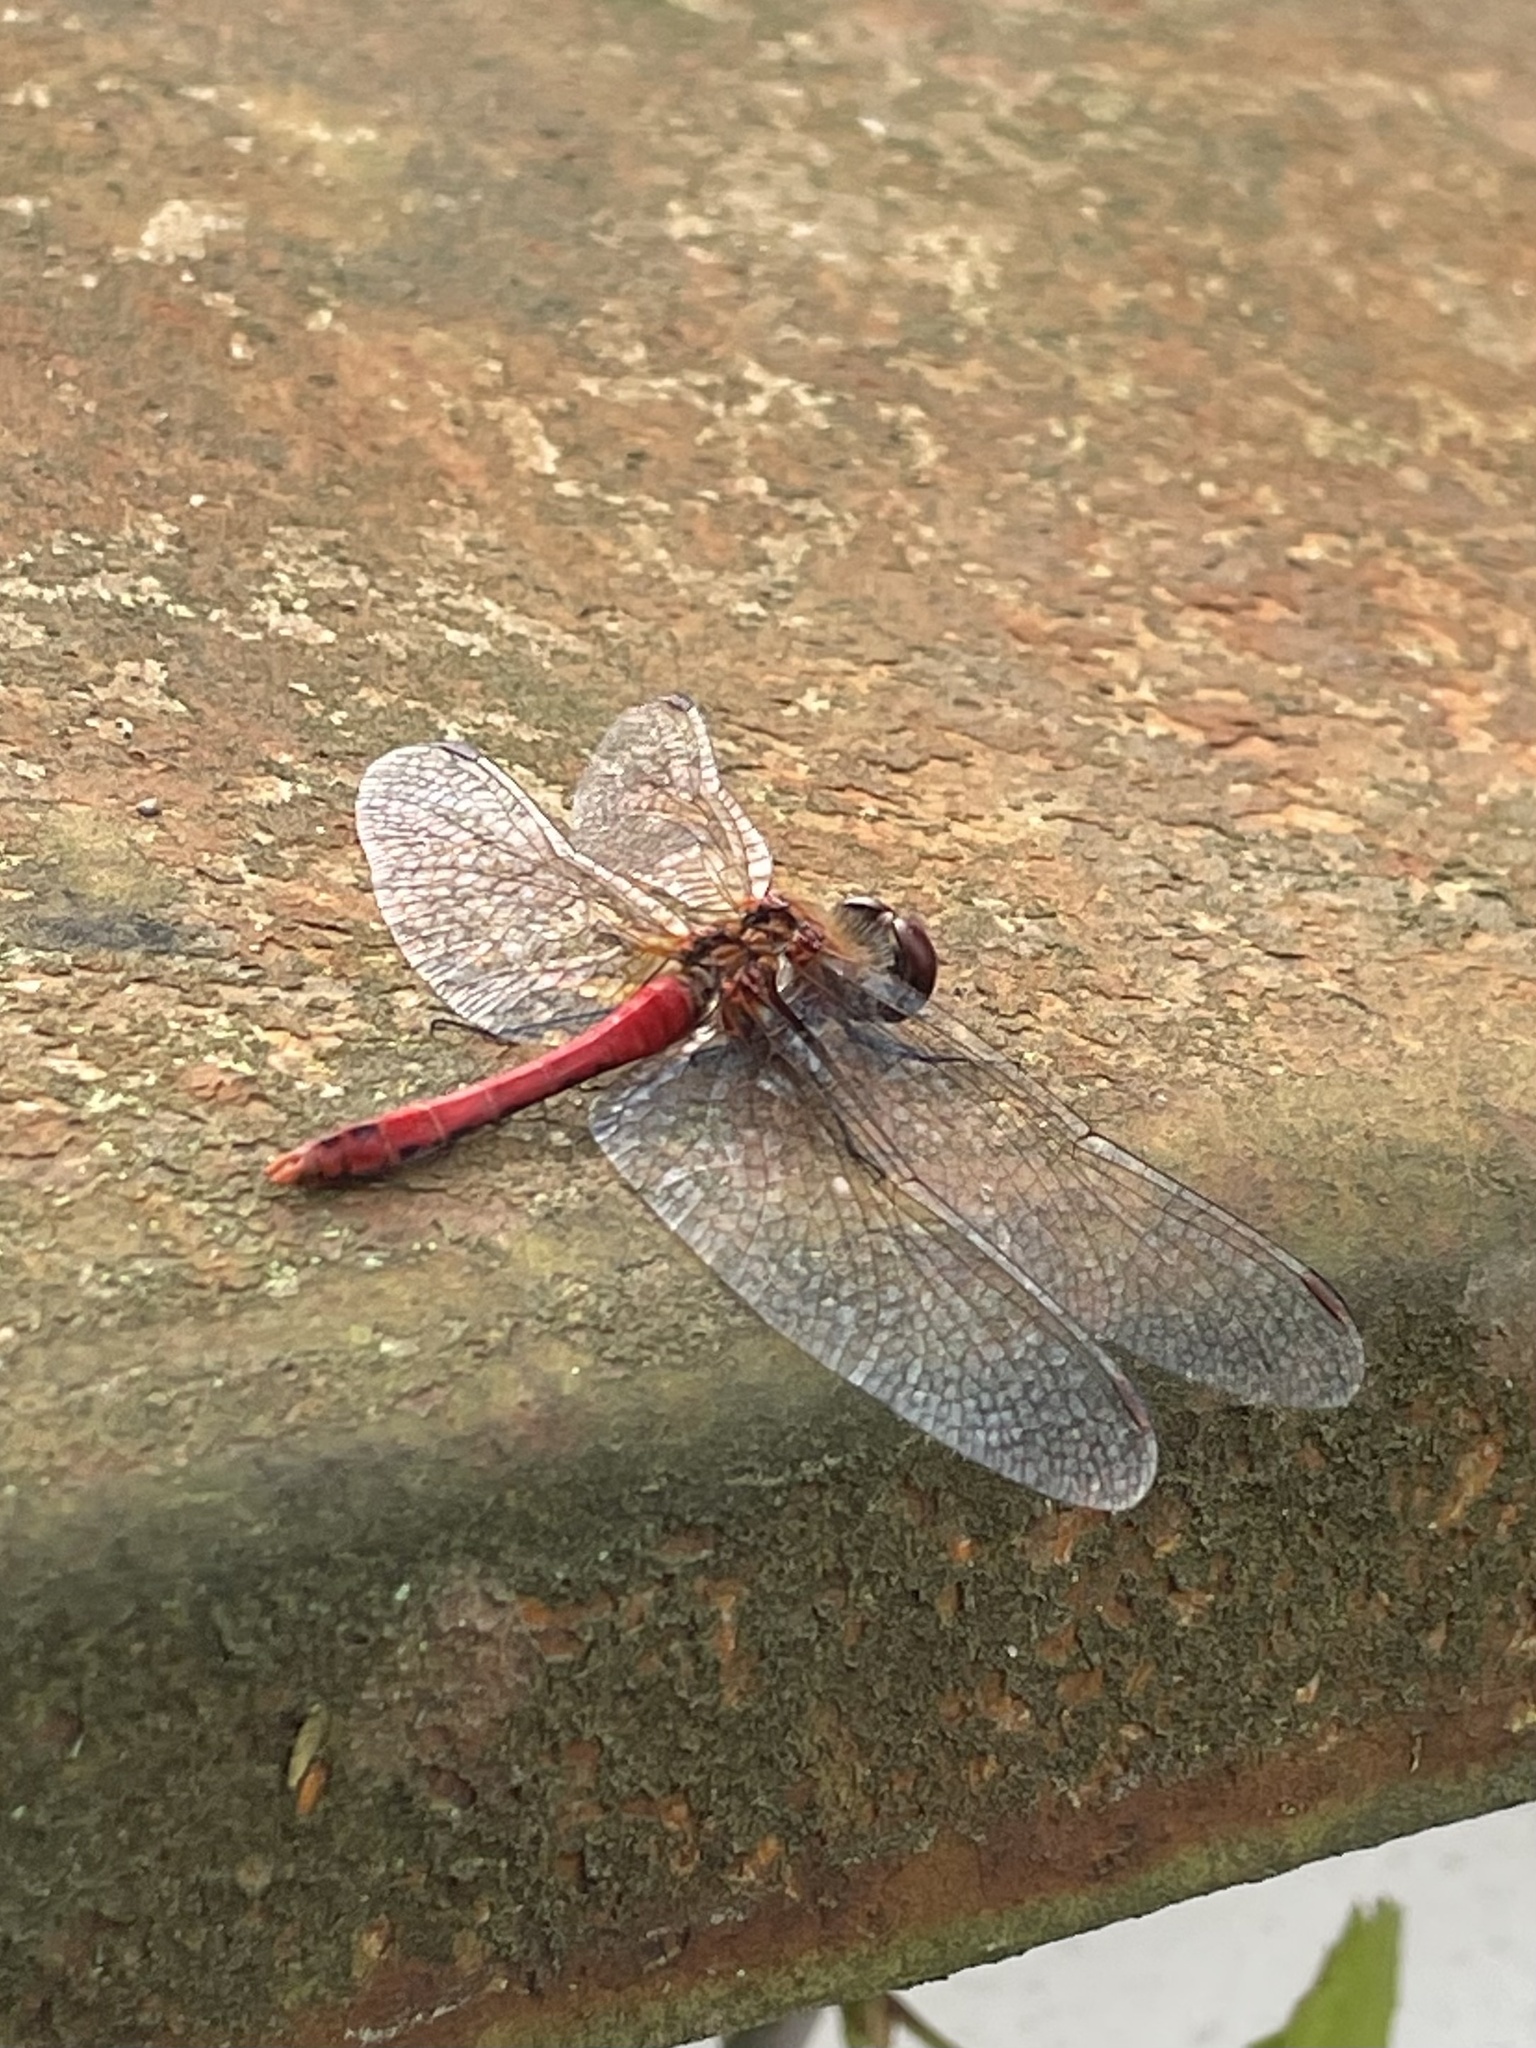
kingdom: Animalia
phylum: Arthropoda
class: Insecta
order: Odonata
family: Libellulidae
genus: Sympetrum
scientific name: Sympetrum sanguineum
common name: Ruddy darter
